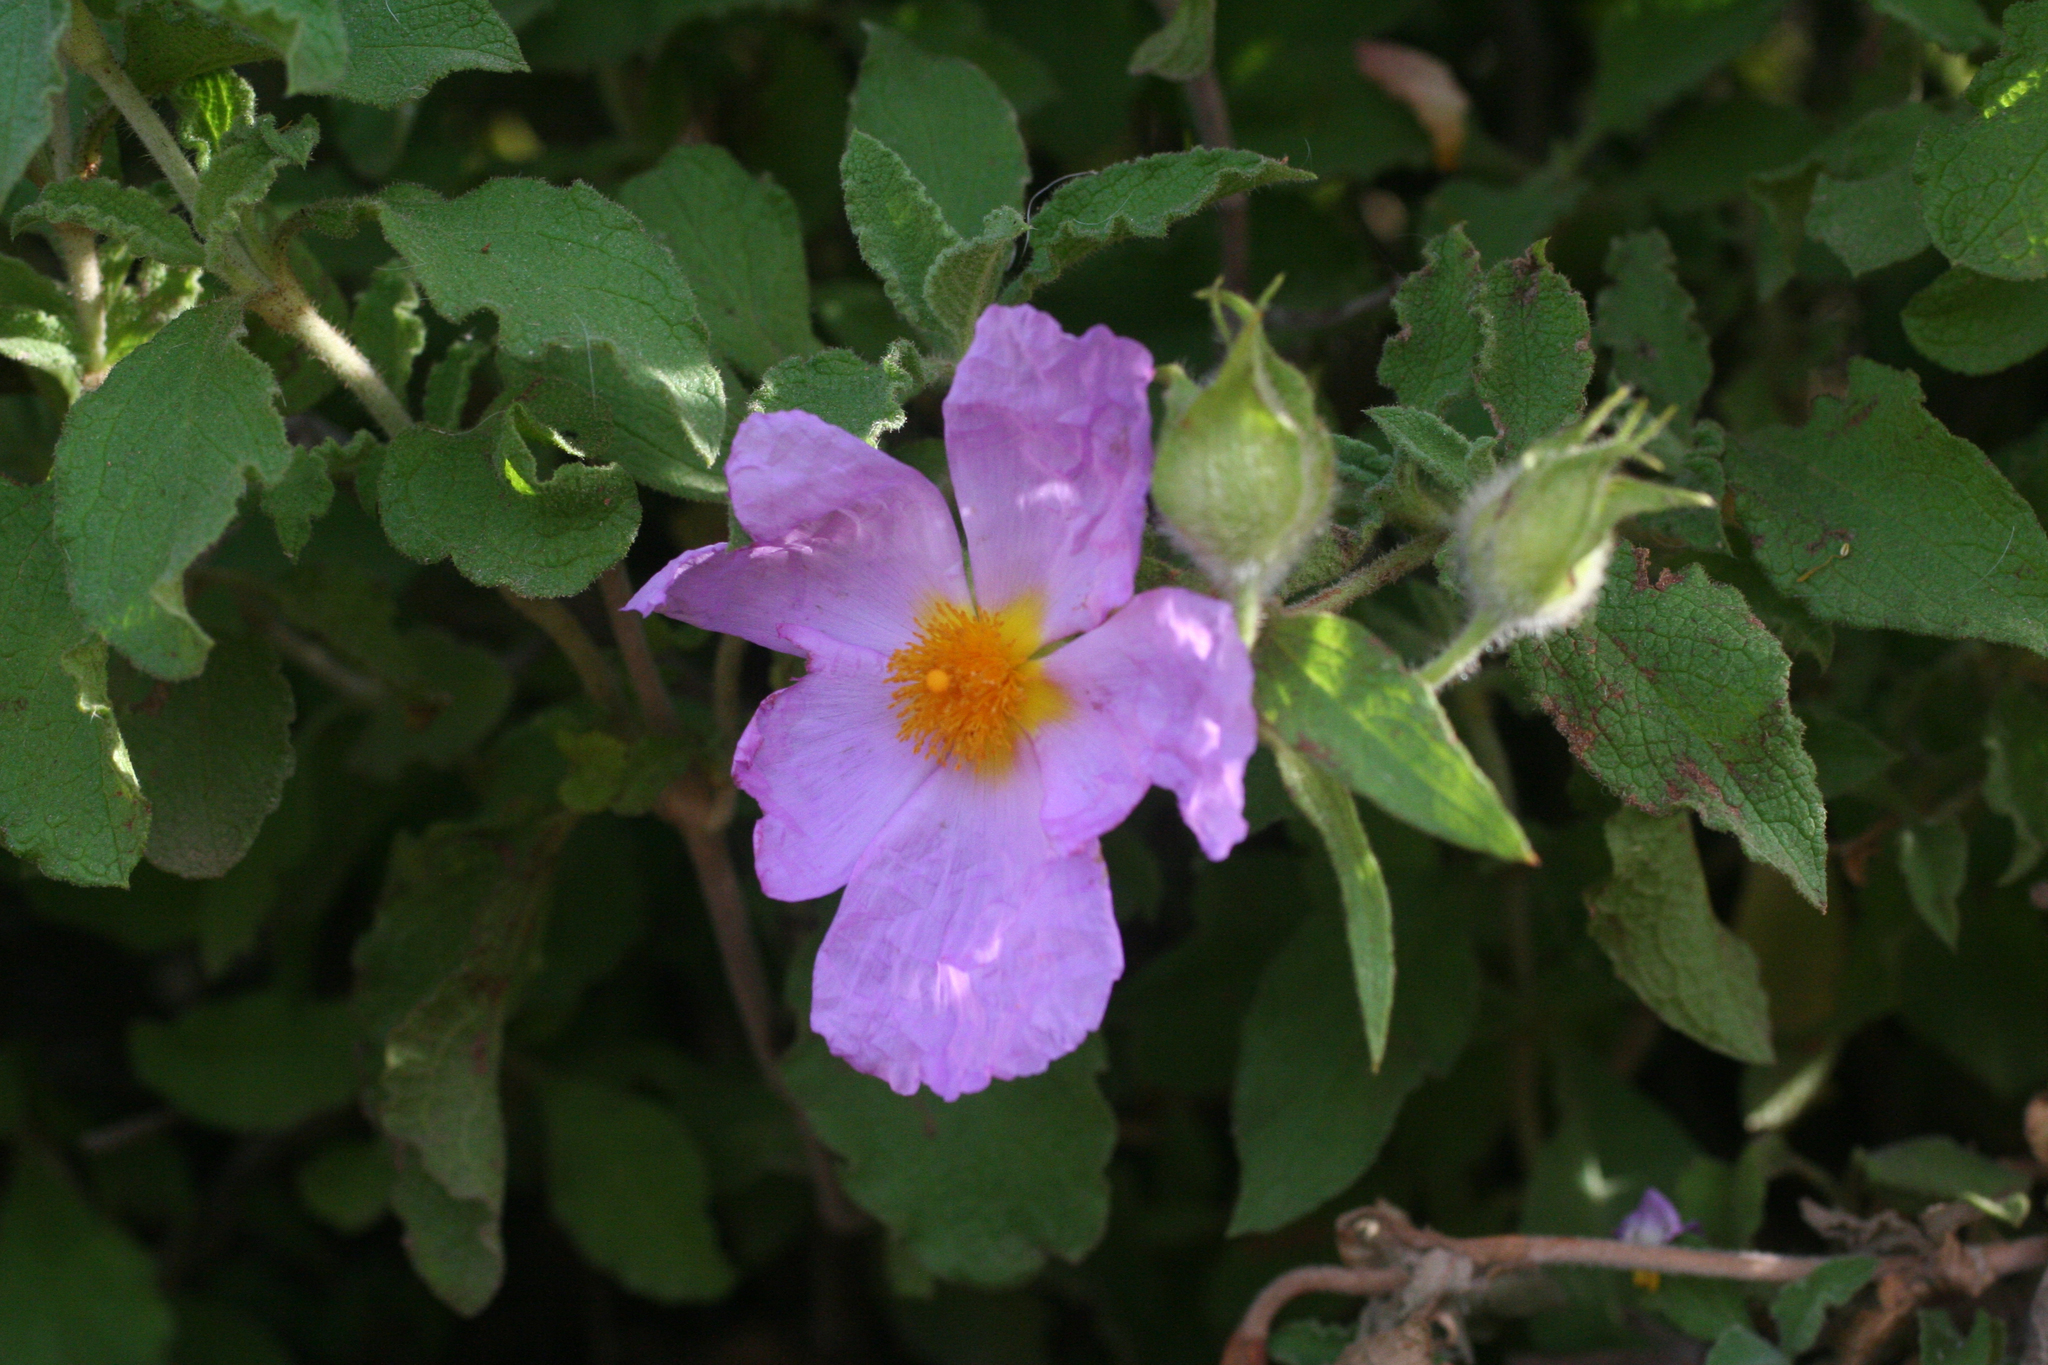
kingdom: Plantae
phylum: Tracheophyta
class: Magnoliopsida
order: Malvales
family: Cistaceae
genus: Cistus
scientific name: Cistus creticus
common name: Cretan rockrose
